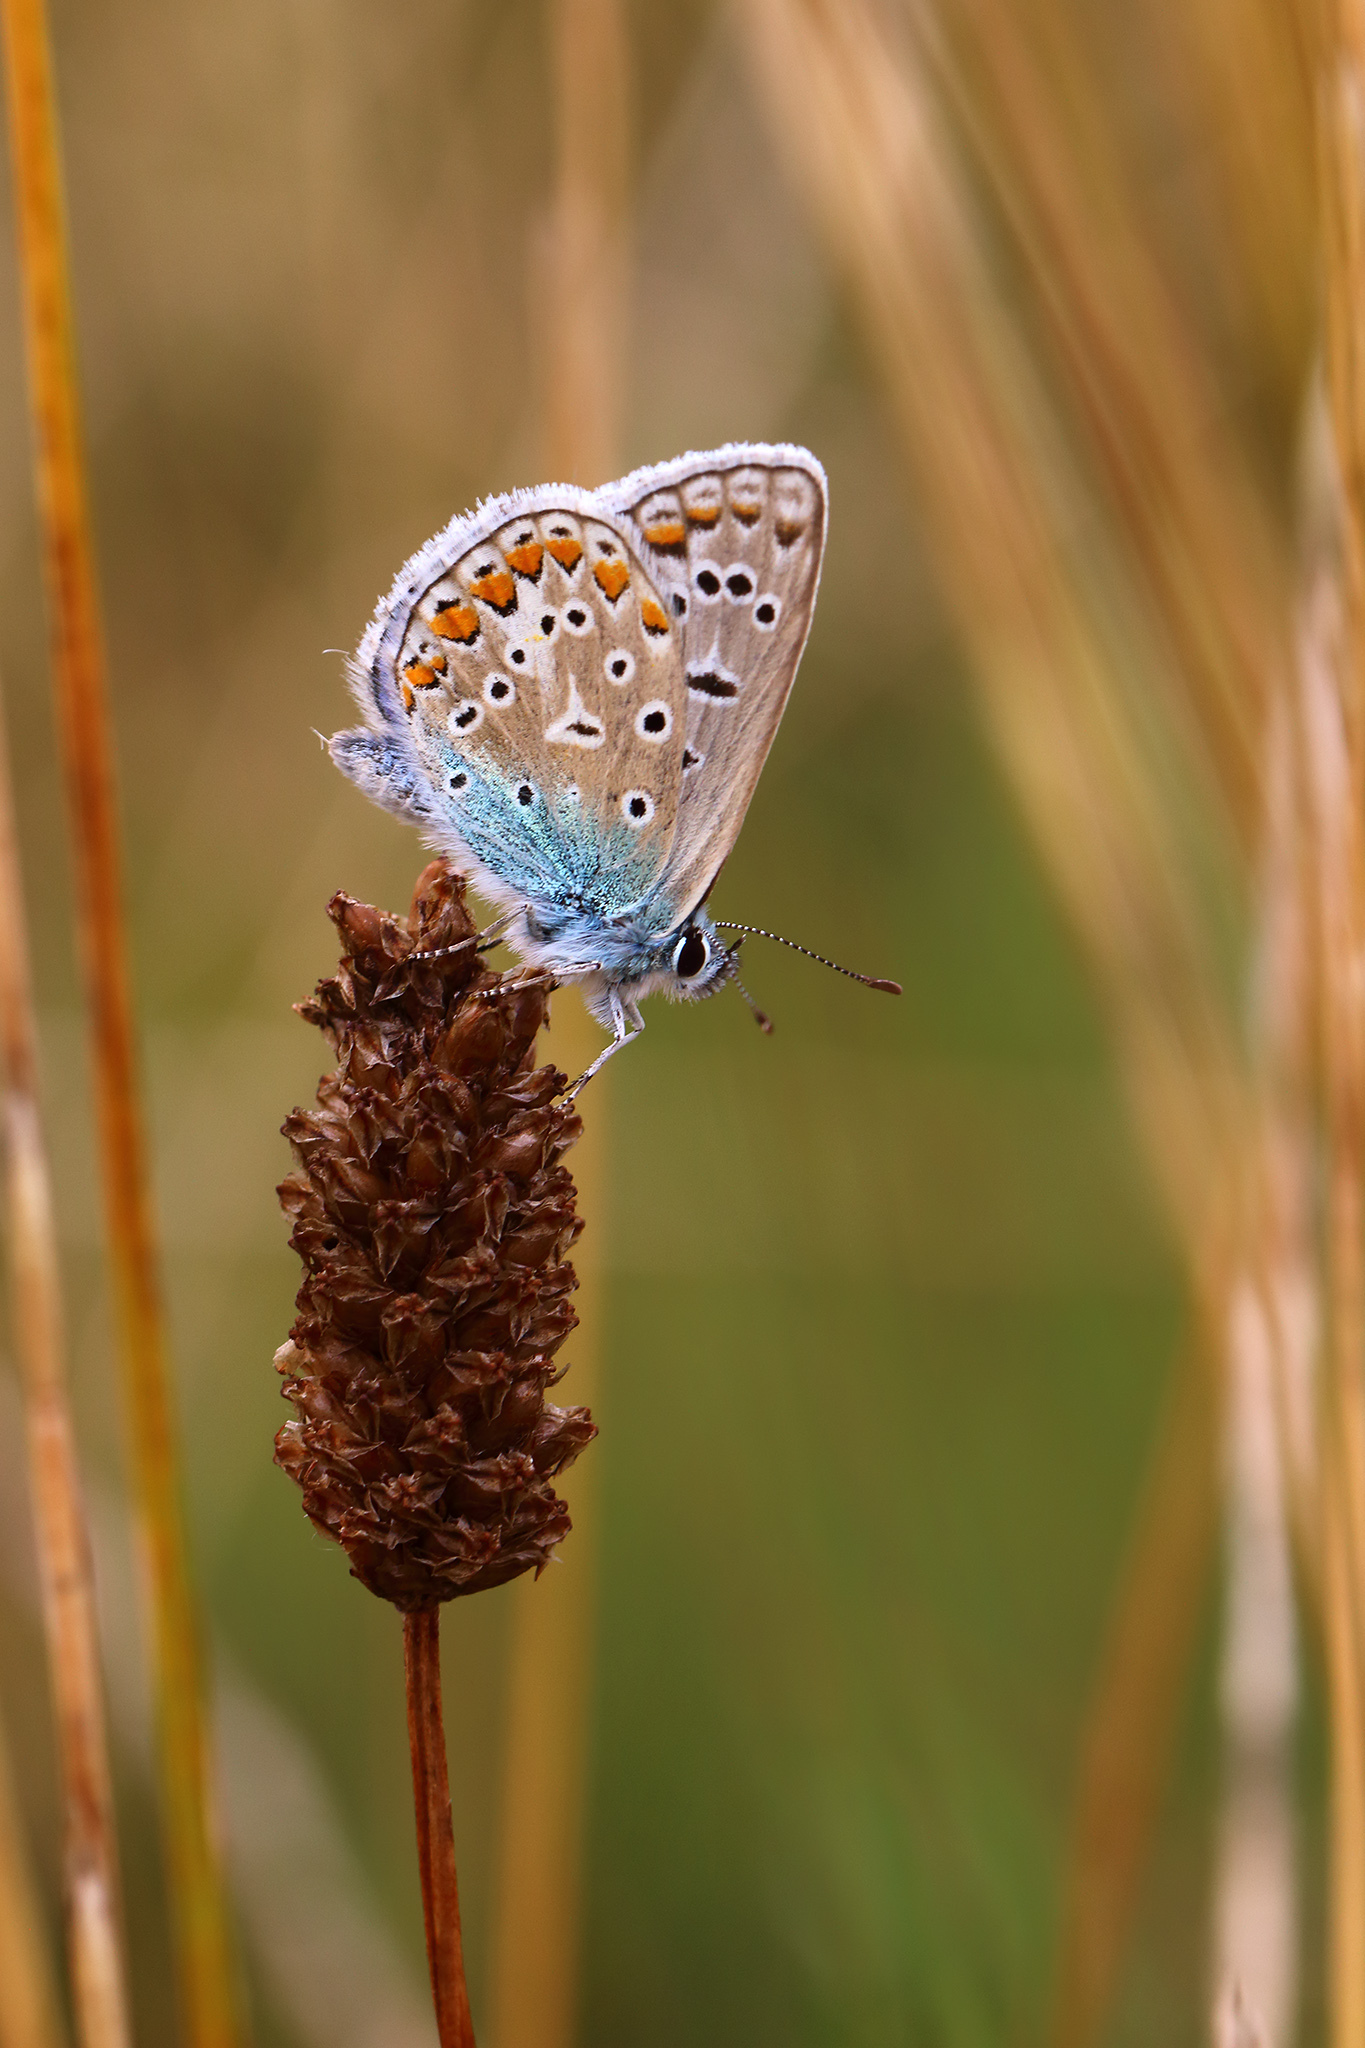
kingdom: Animalia
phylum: Arthropoda
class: Insecta
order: Lepidoptera
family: Lycaenidae
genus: Polyommatus
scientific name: Polyommatus icarus
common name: Common blue
